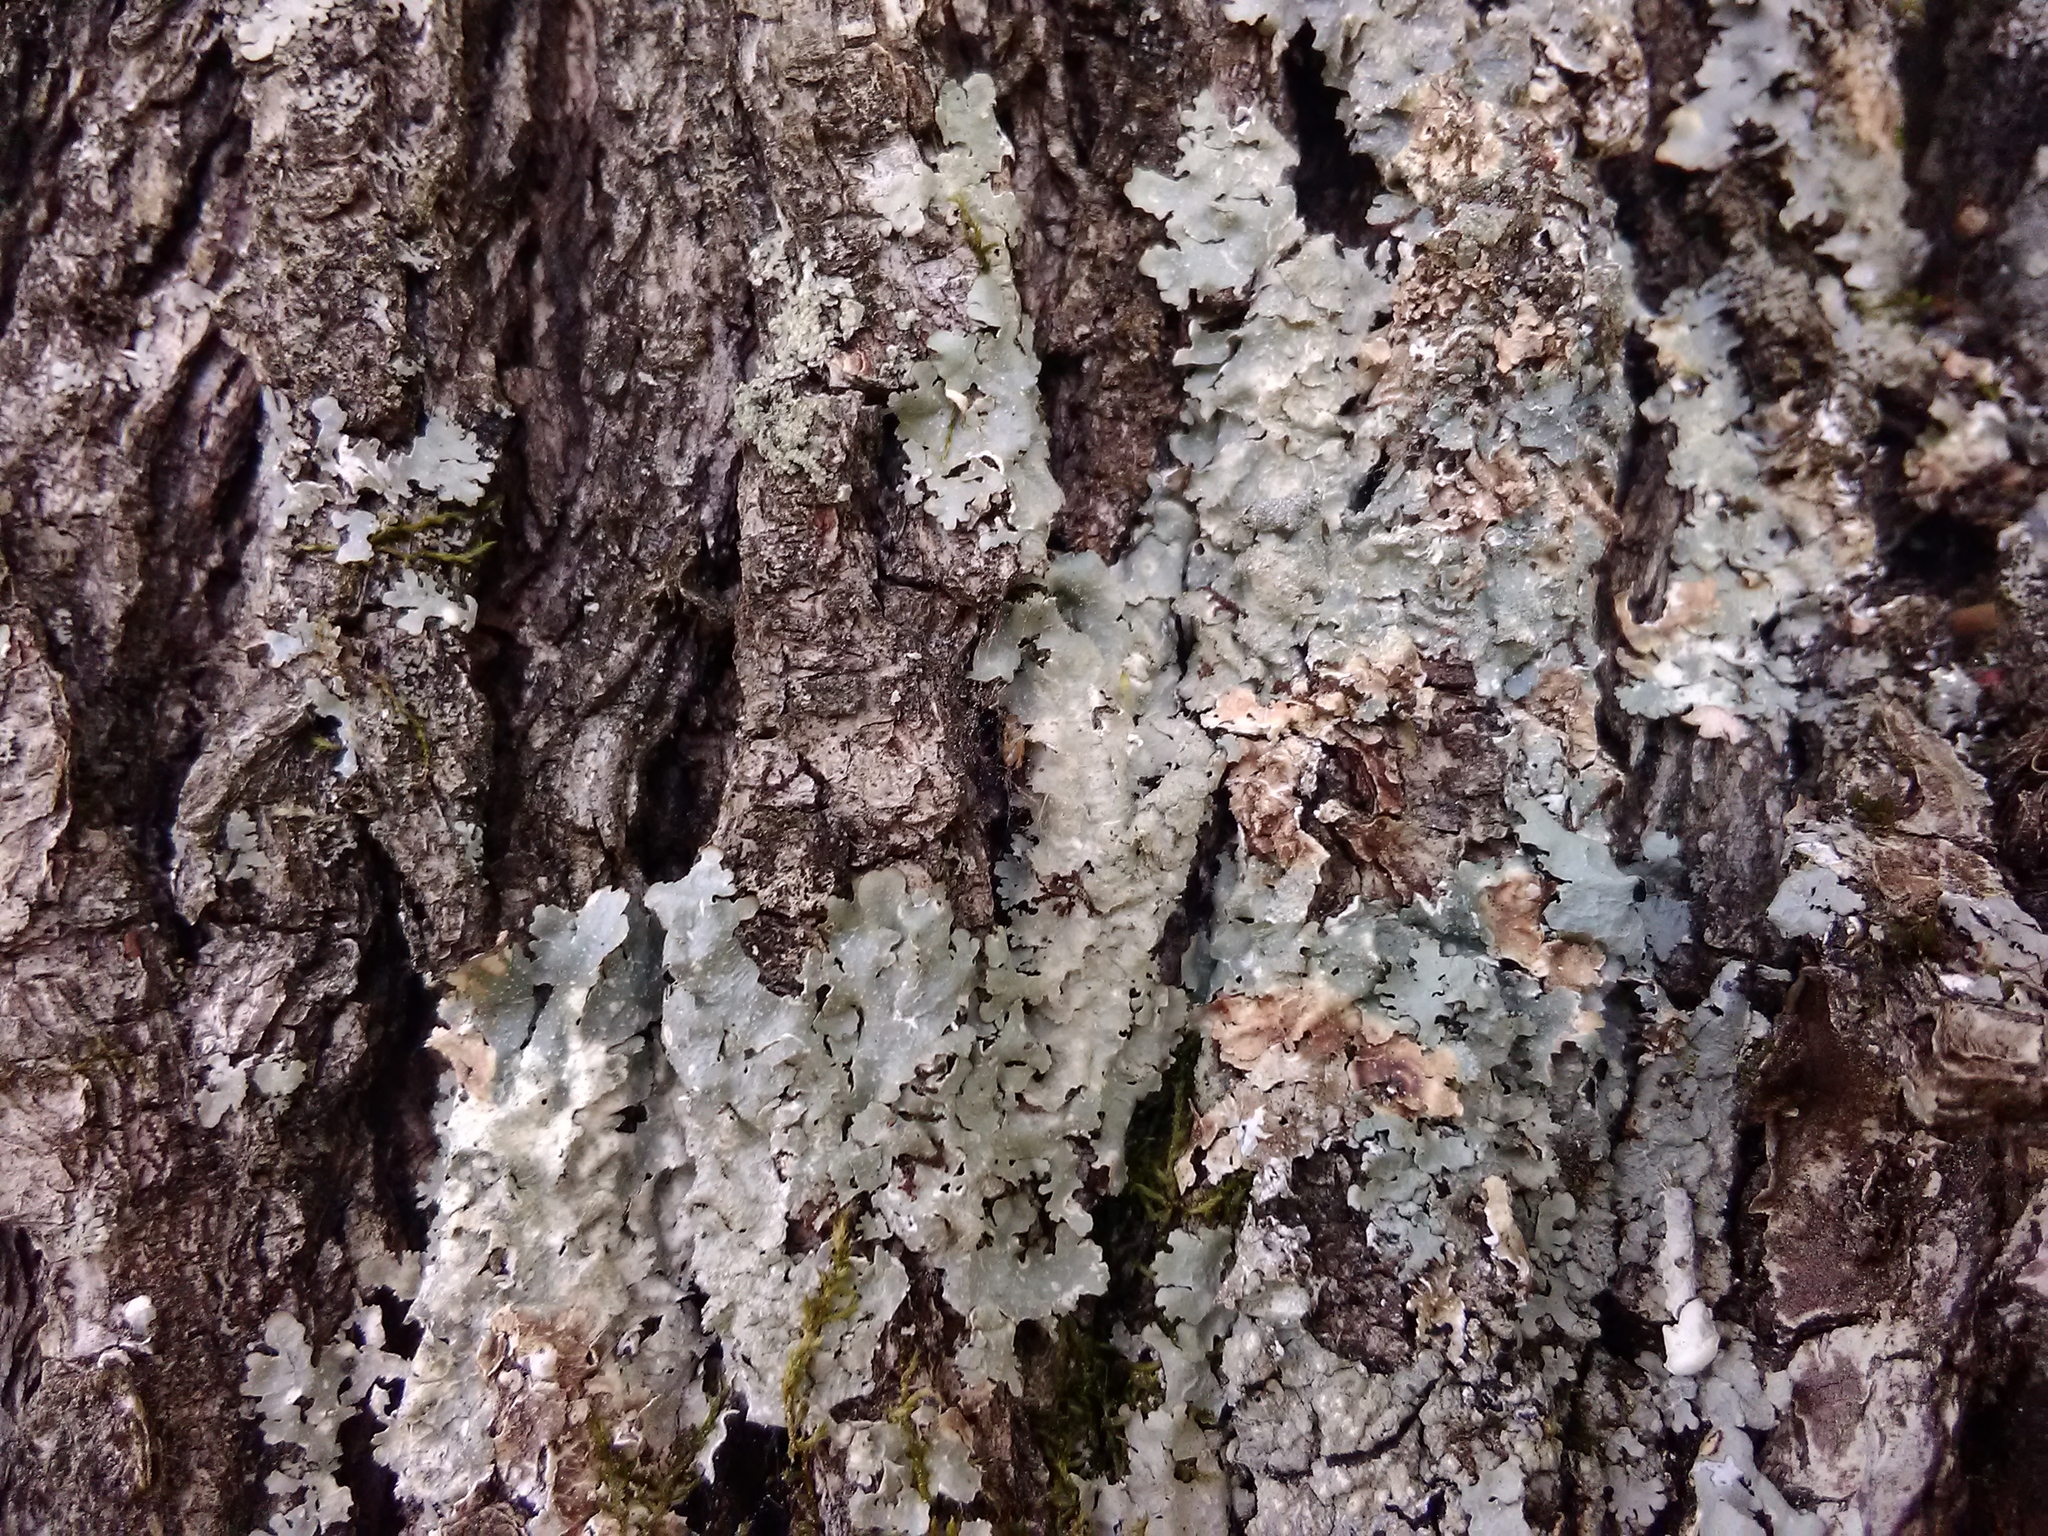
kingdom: Fungi
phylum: Ascomycota
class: Lecanoromycetes
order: Lecanorales
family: Parmeliaceae
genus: Punctelia
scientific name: Punctelia rudecta
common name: Rough speckled shield lichen
